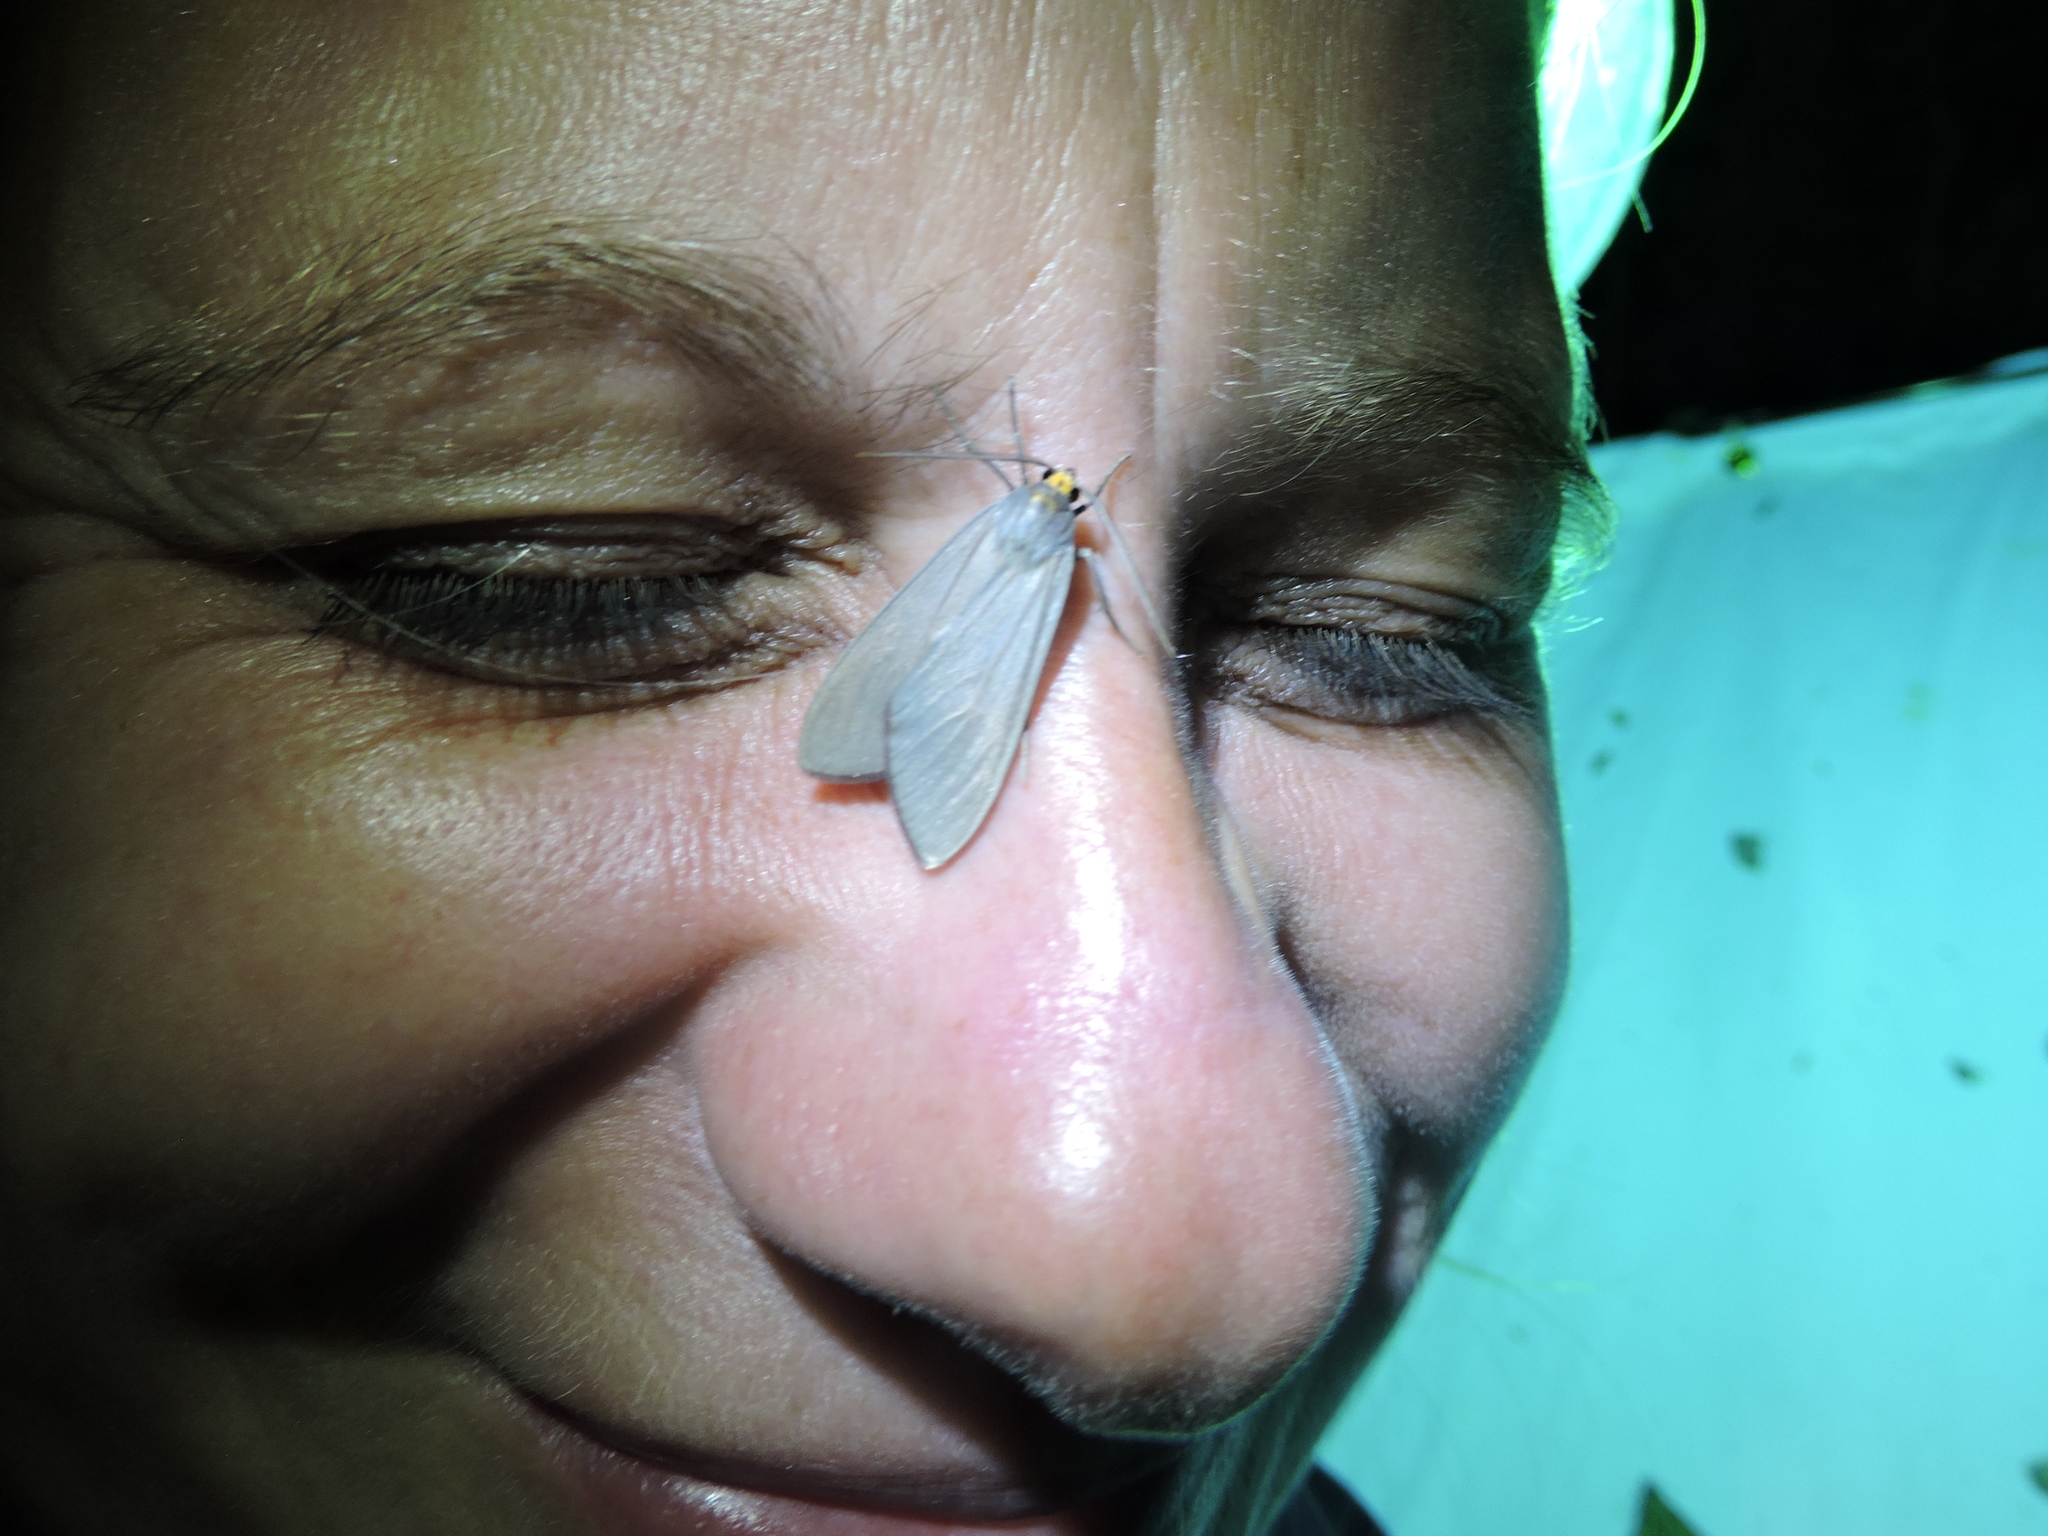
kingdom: Animalia
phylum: Arthropoda
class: Insecta
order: Lepidoptera
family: Erebidae
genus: Opharus
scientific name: Opharus muricolor
